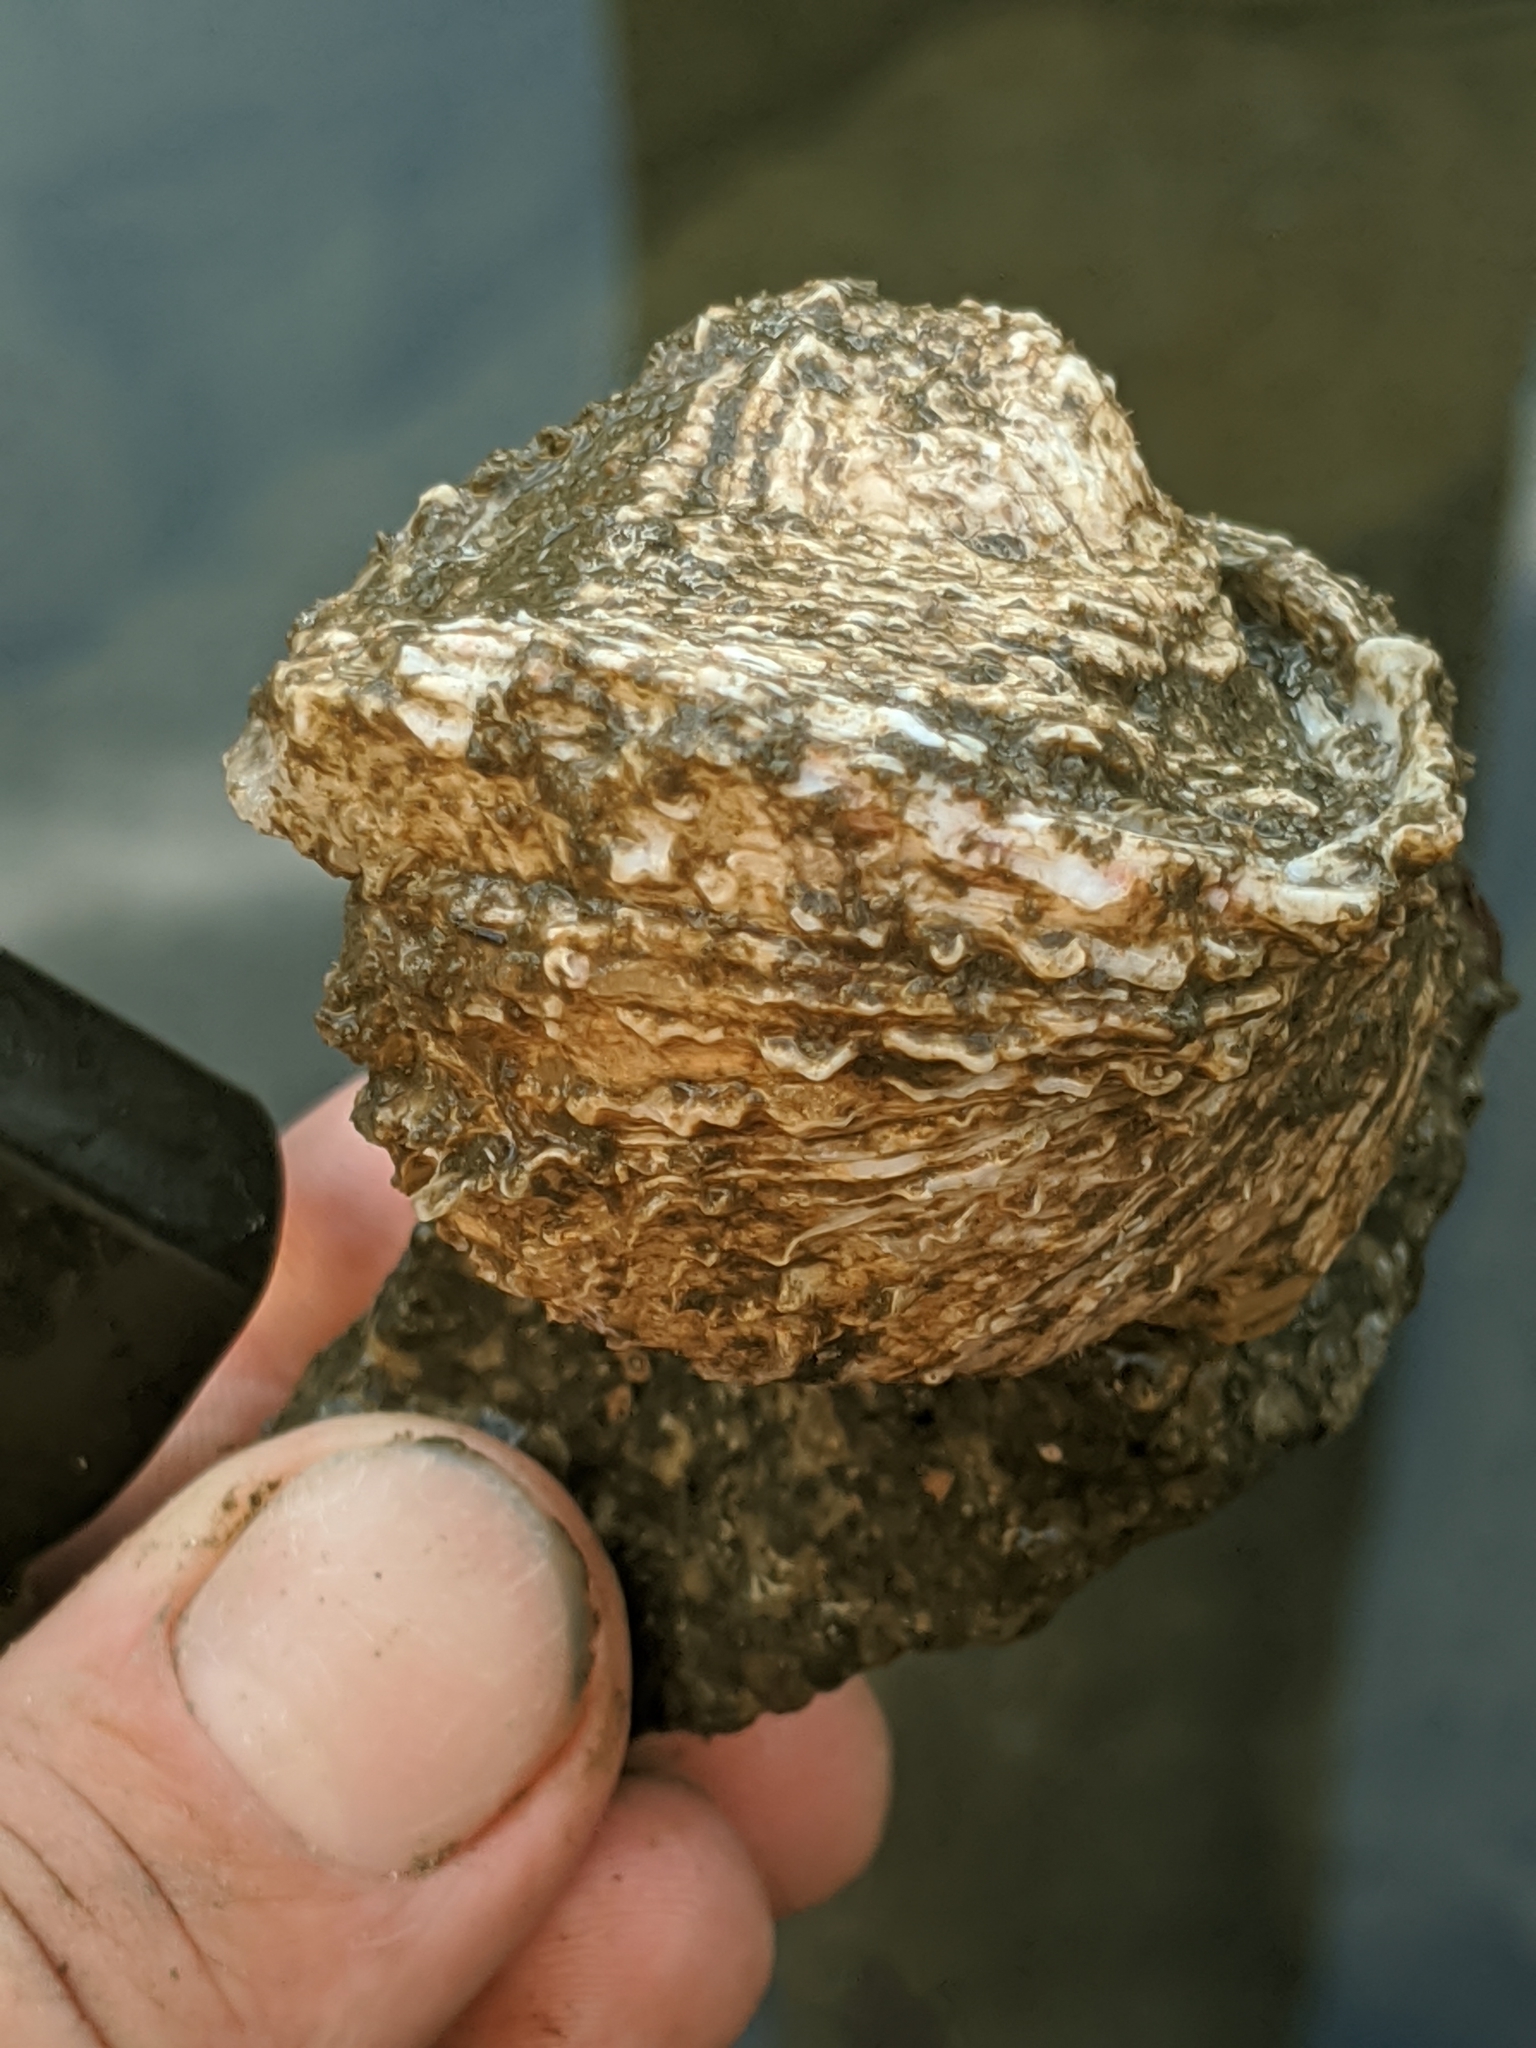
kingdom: Animalia
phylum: Mollusca
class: Bivalvia
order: Venerida
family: Chamidae
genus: Pseudochama
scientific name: Pseudochama exogyra
